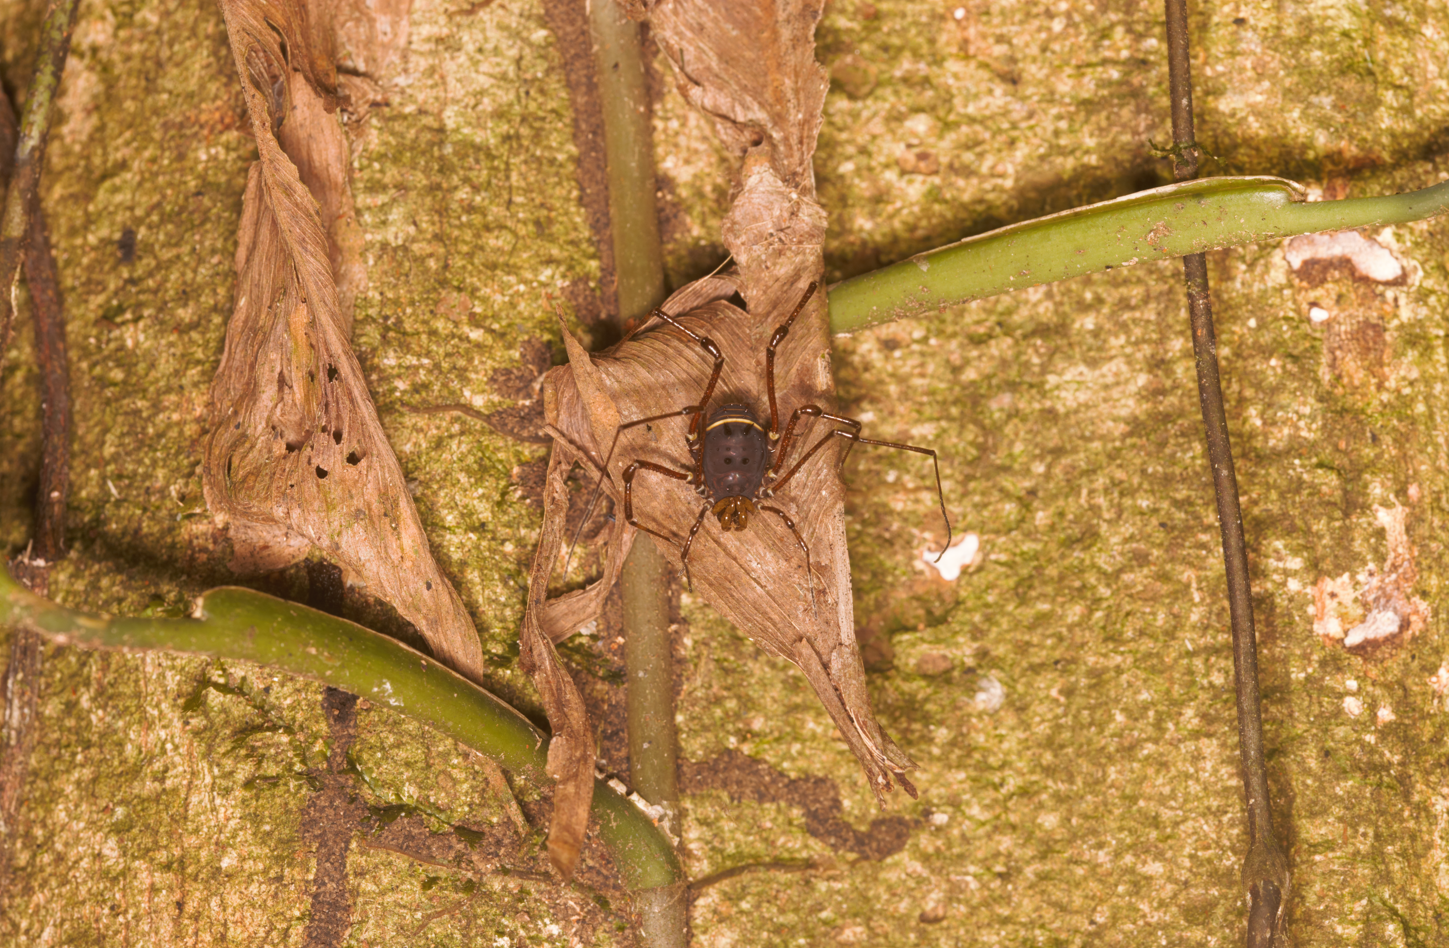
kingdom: Animalia
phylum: Arthropoda
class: Arachnida
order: Opiliones
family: Manaosbiidae
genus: Rhopalocranaus
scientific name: Rhopalocranaus marginatus
